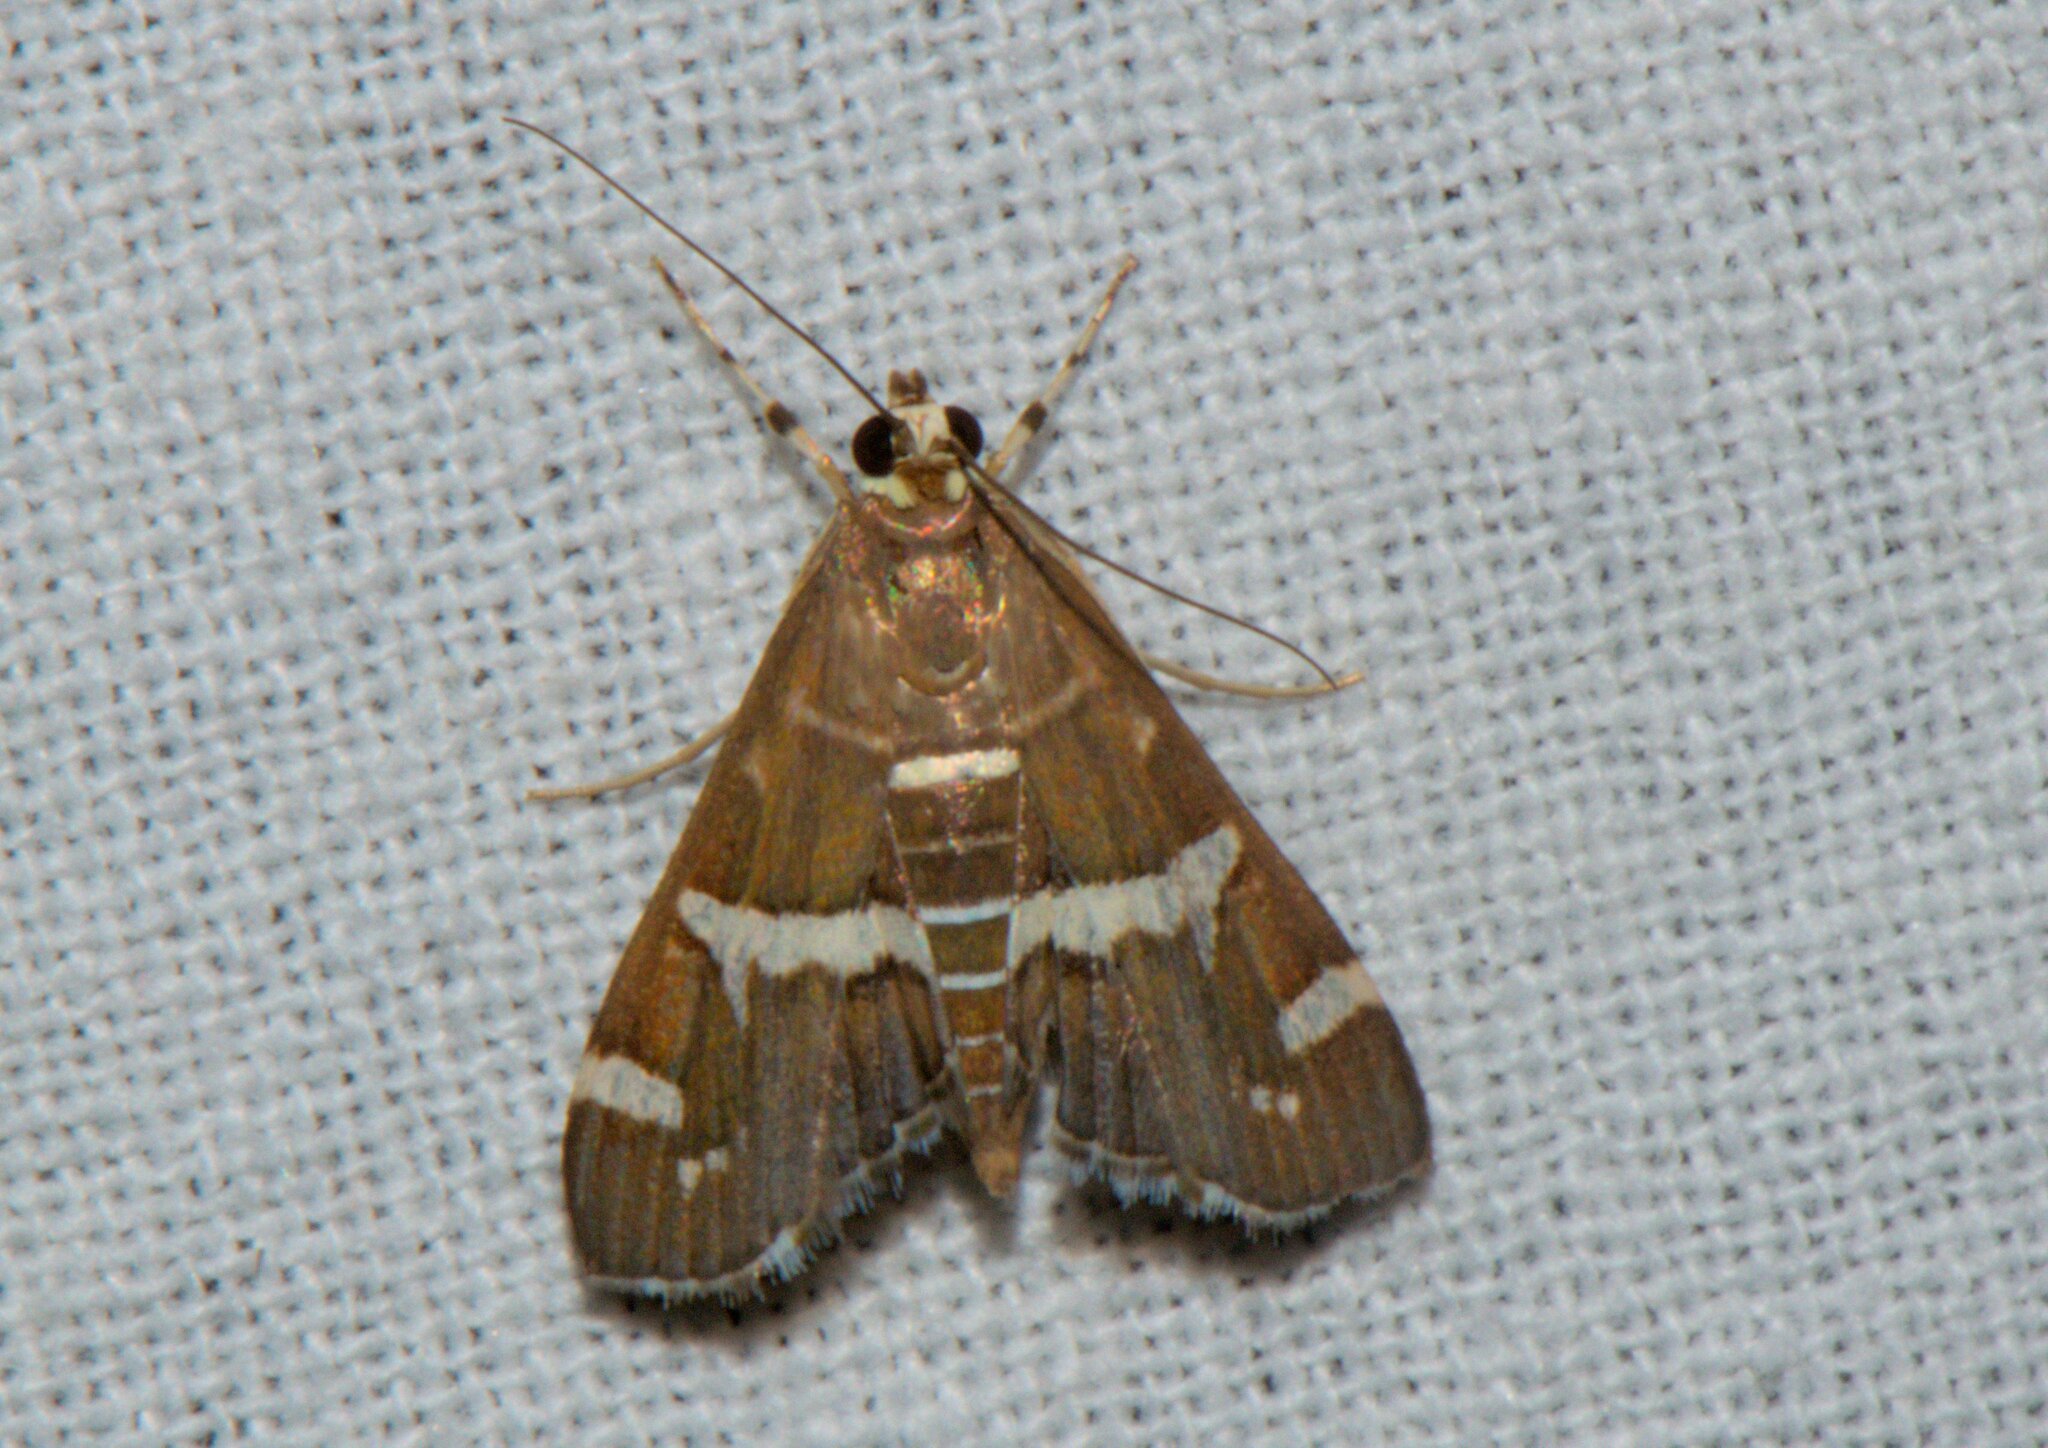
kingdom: Animalia
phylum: Arthropoda
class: Insecta
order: Lepidoptera
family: Crambidae
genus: Spoladea
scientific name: Spoladea recurvalis
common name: Beet webworm moth
